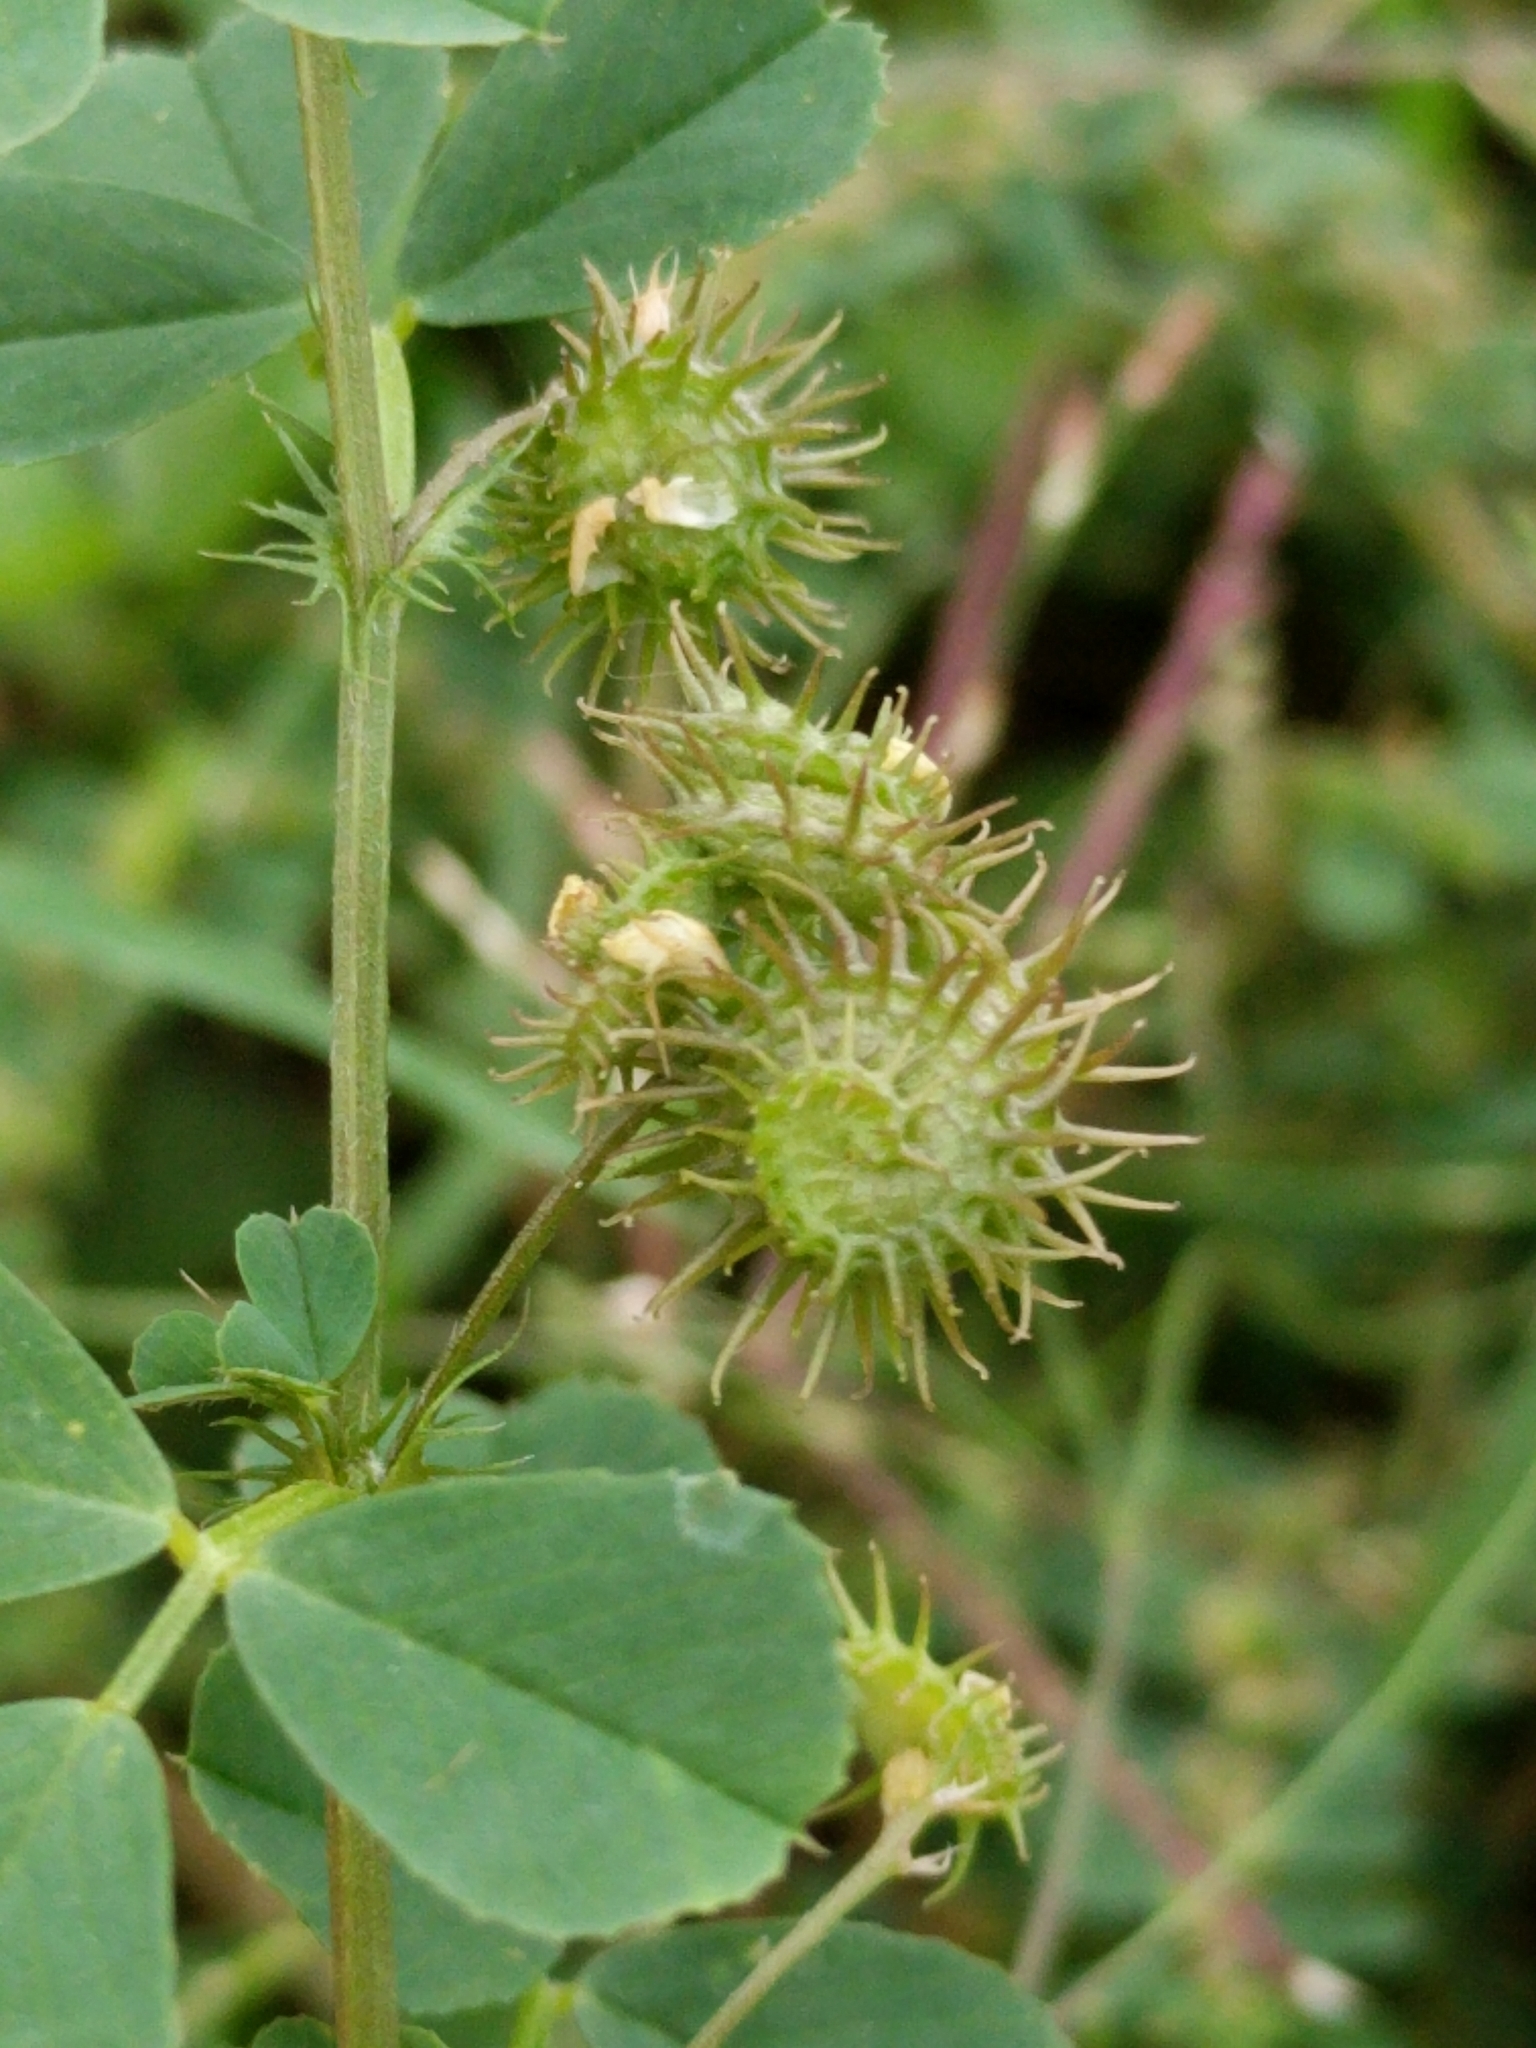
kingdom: Plantae
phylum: Tracheophyta
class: Magnoliopsida
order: Fabales
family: Fabaceae
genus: Medicago
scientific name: Medicago polymorpha
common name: Burclover
